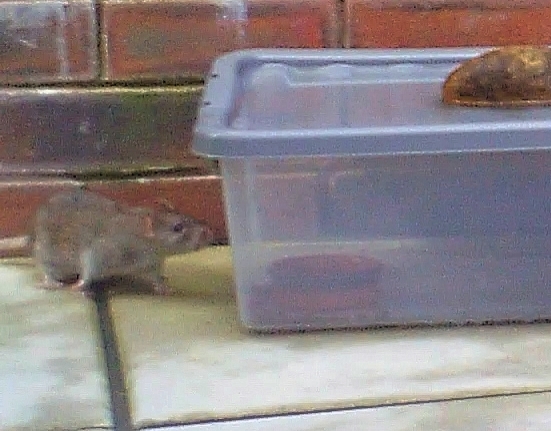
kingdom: Animalia
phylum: Chordata
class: Mammalia
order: Rodentia
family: Muridae
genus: Rattus
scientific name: Rattus norvegicus
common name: Brown rat
